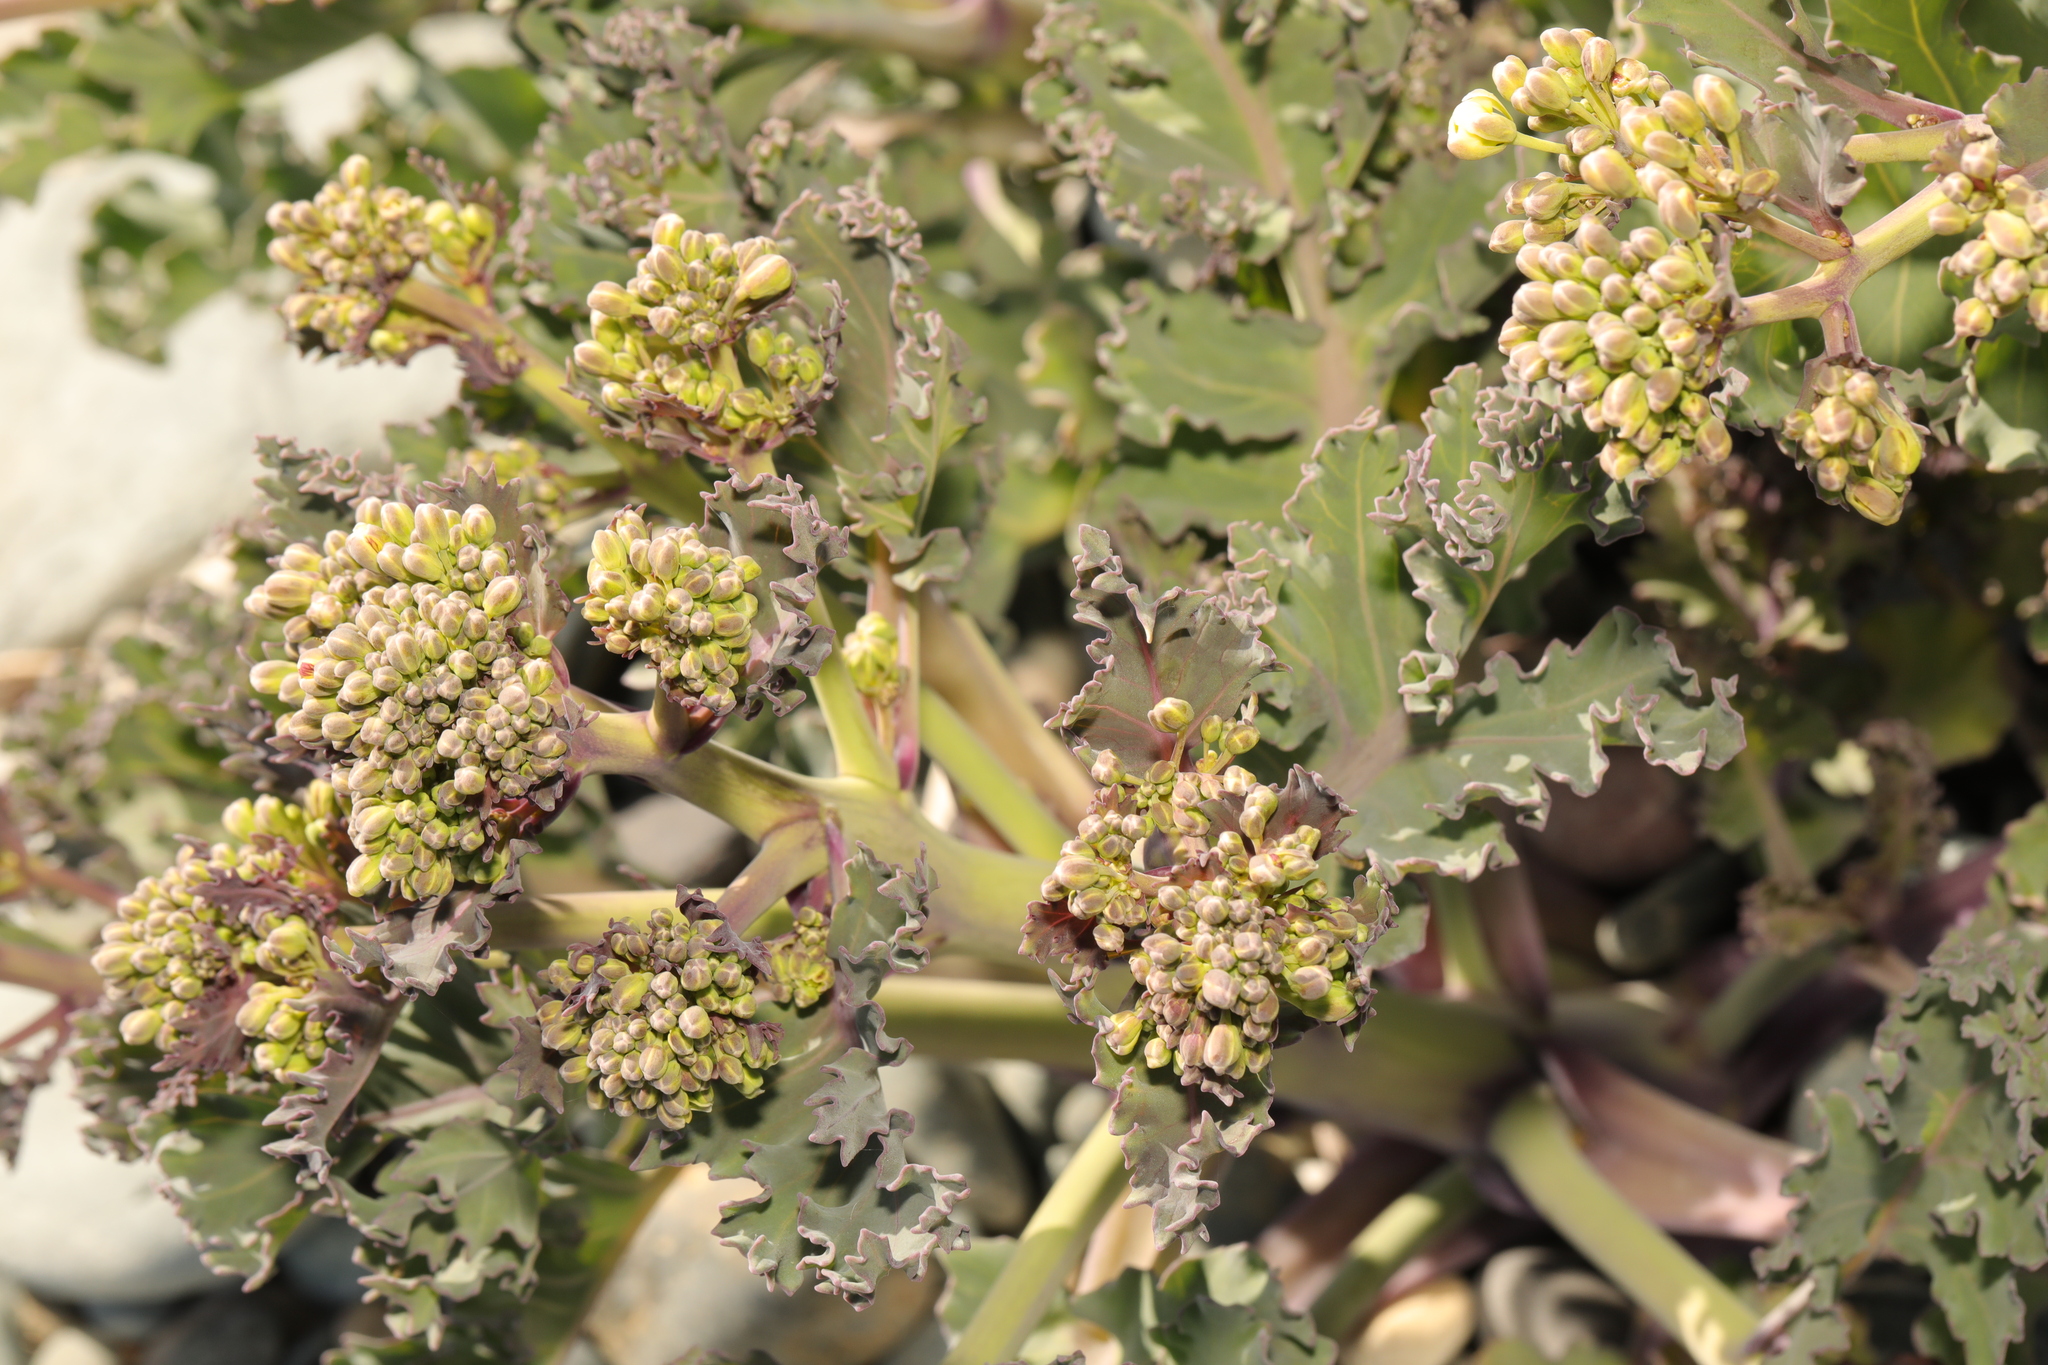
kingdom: Plantae
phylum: Tracheophyta
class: Magnoliopsida
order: Brassicales
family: Brassicaceae
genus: Crambe
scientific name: Crambe maritima
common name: Sea-kale
